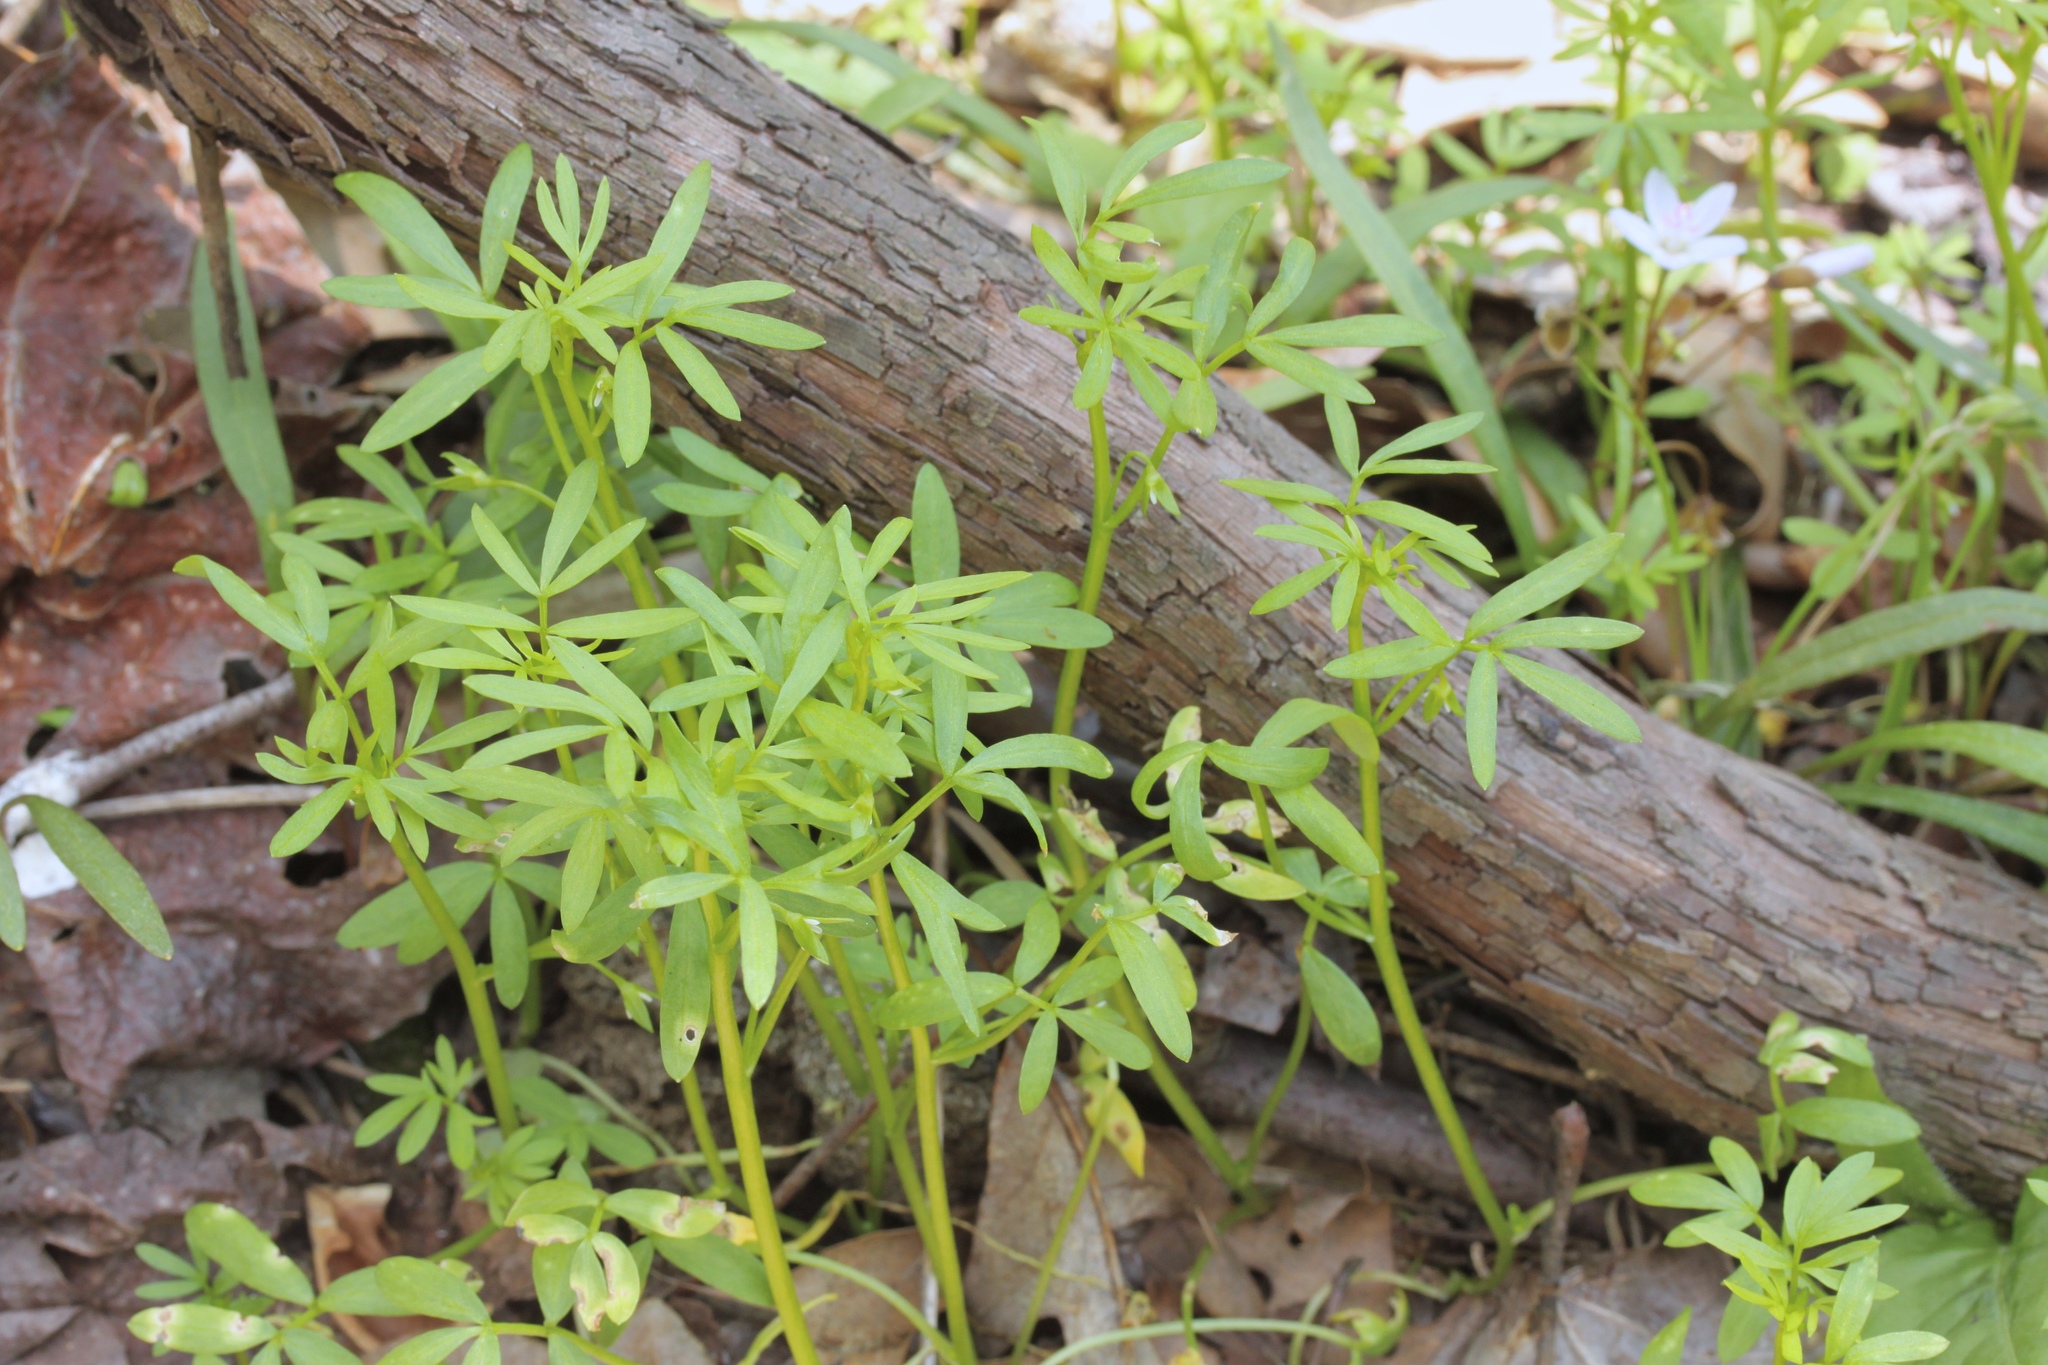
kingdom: Plantae
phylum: Tracheophyta
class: Magnoliopsida
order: Brassicales
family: Limnanthaceae
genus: Floerkea
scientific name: Floerkea proserpinacoides
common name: False mermaid
